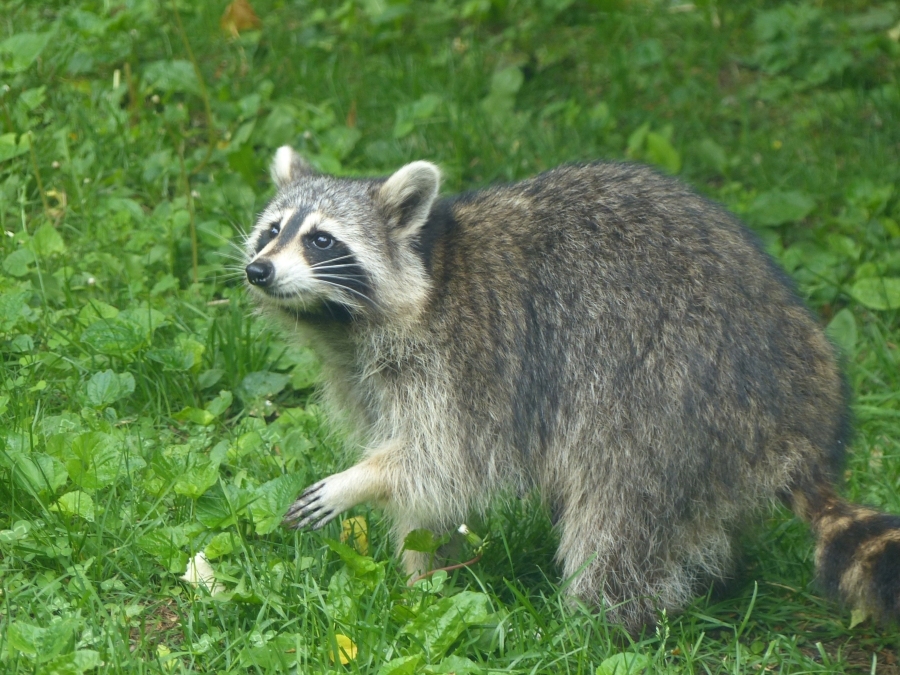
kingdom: Animalia
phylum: Chordata
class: Mammalia
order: Carnivora
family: Procyonidae
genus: Procyon
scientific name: Procyon lotor
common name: Raccoon
